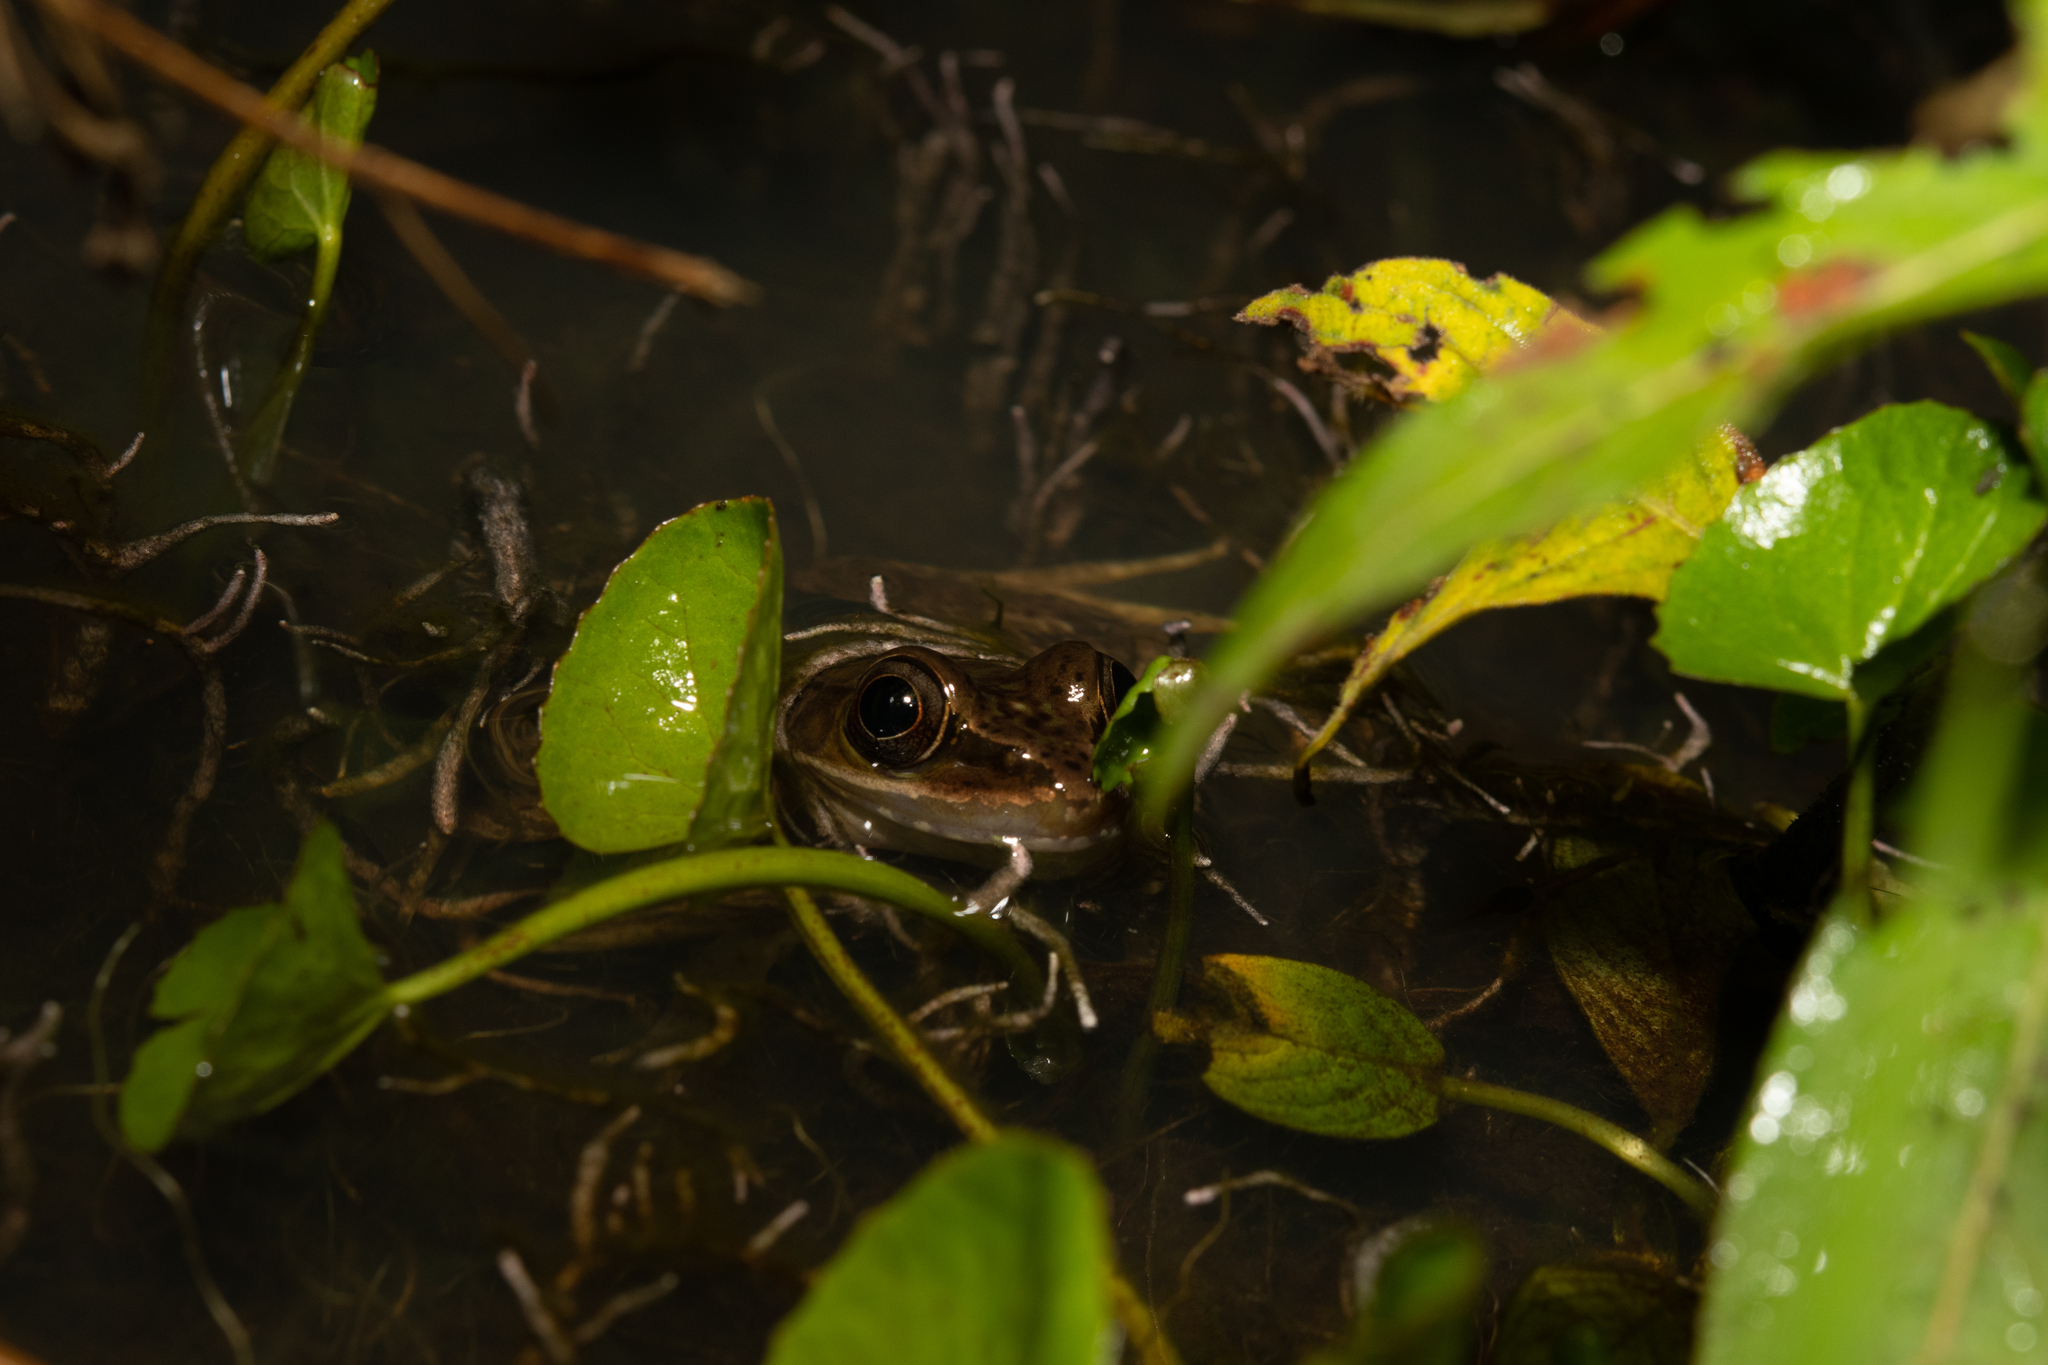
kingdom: Animalia
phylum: Chordata
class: Amphibia
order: Anura
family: Ranidae
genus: Lithobates
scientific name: Lithobates maculatus
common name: Highland frog
